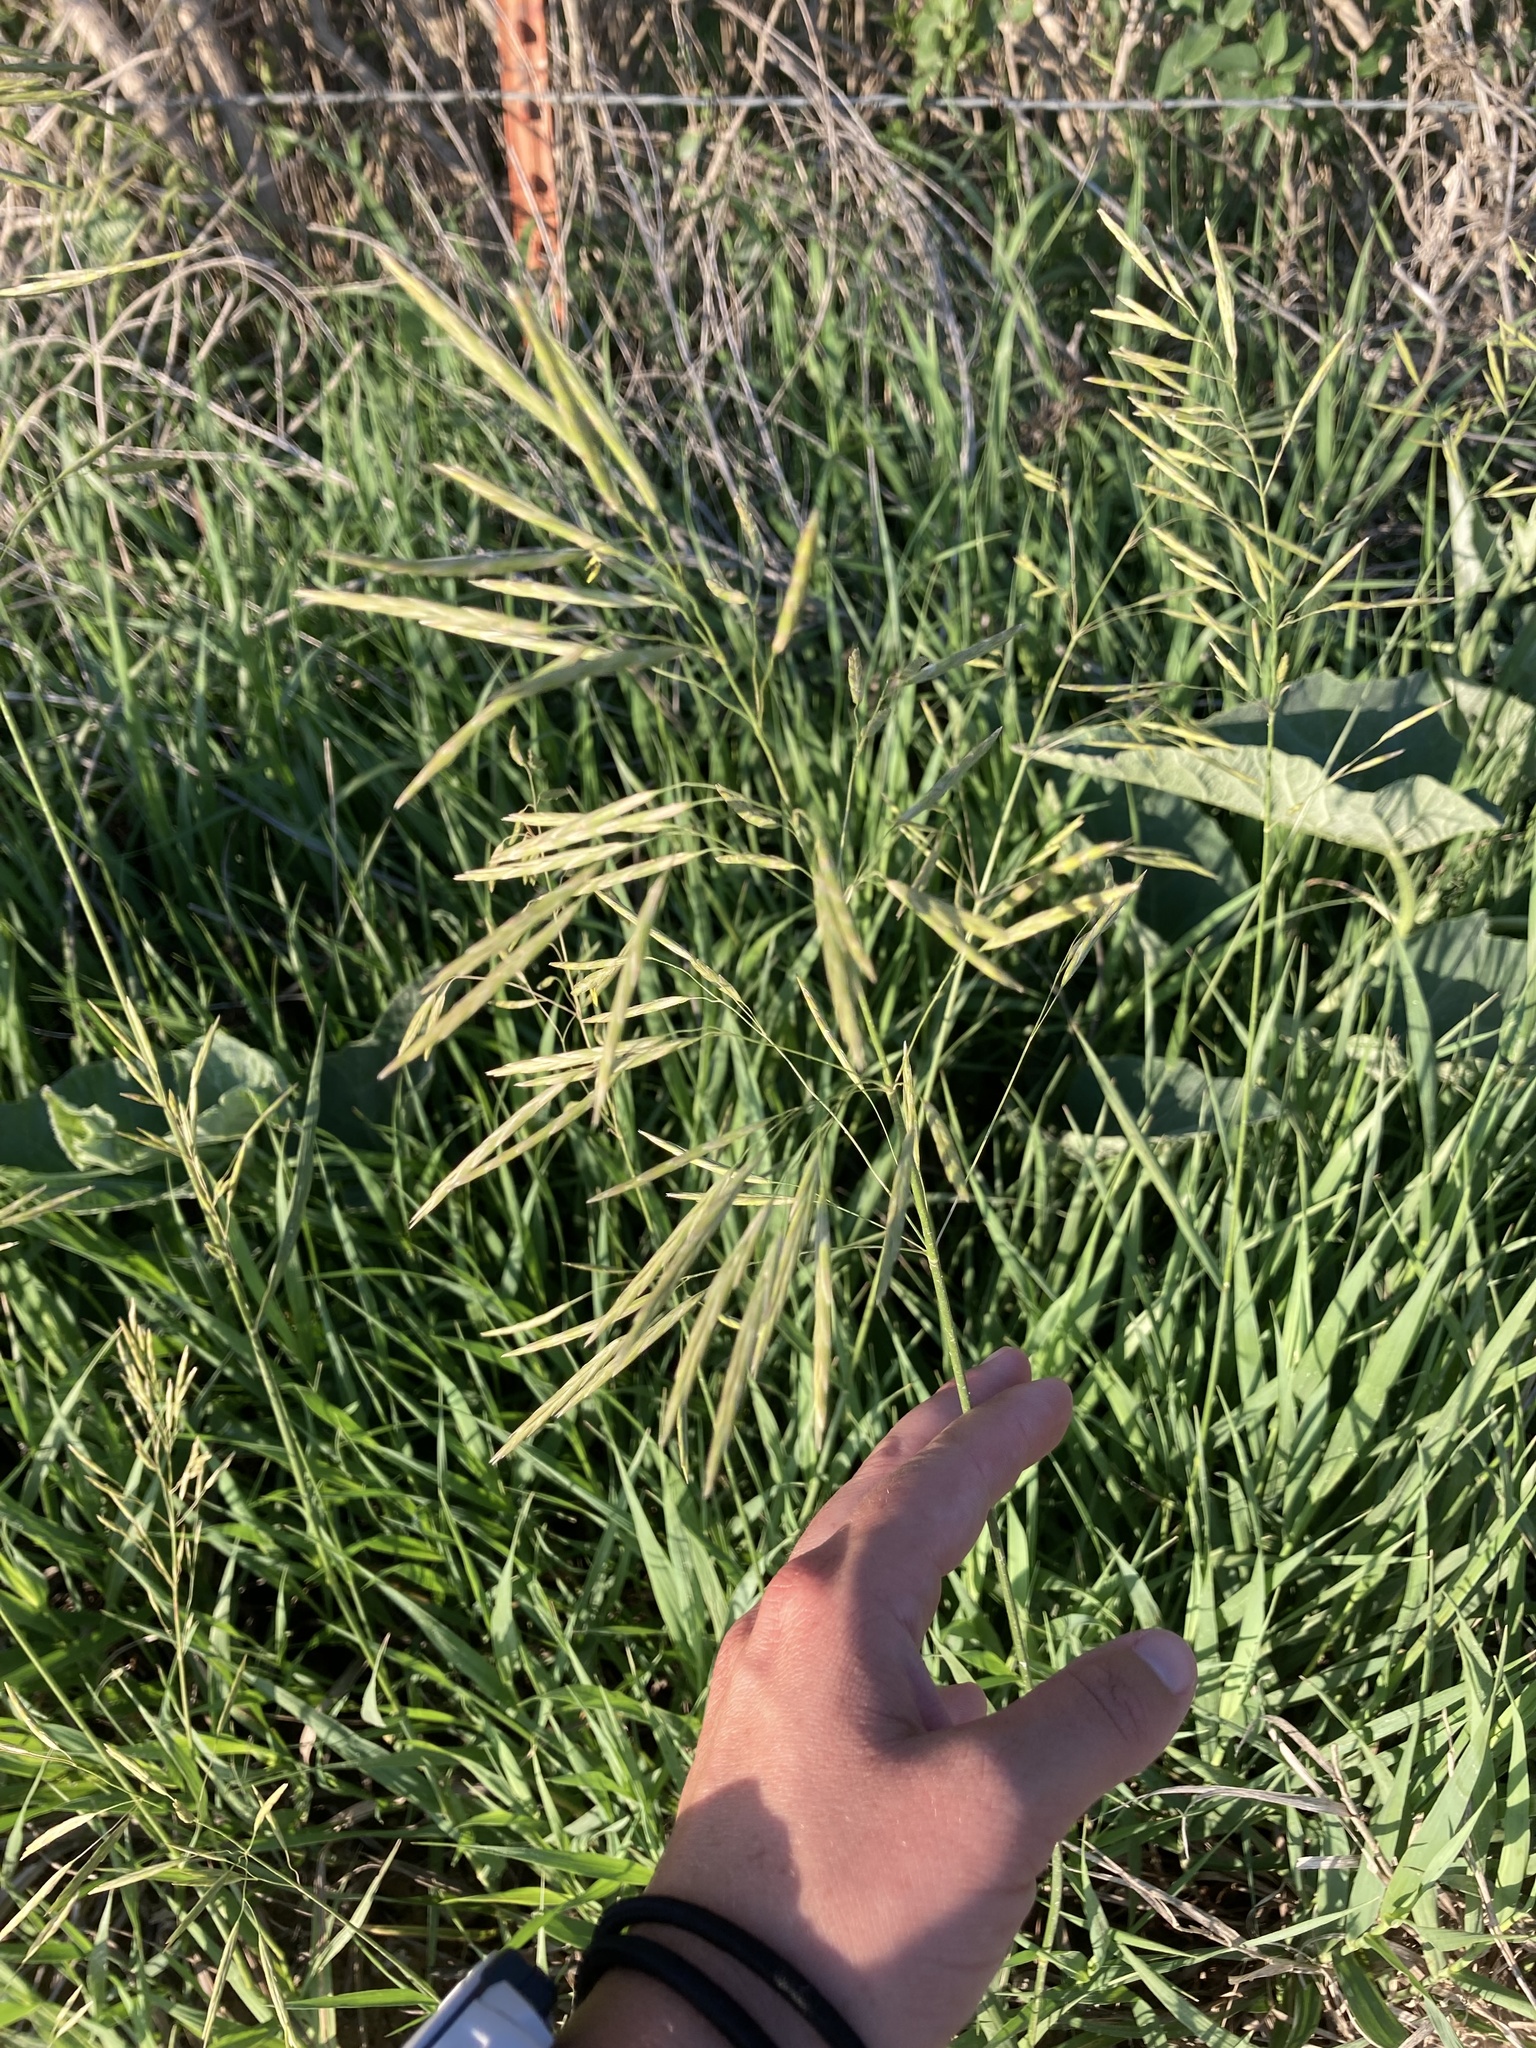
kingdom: Plantae
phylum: Tracheophyta
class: Liliopsida
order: Poales
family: Poaceae
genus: Bromus
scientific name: Bromus inermis
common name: Smooth brome
